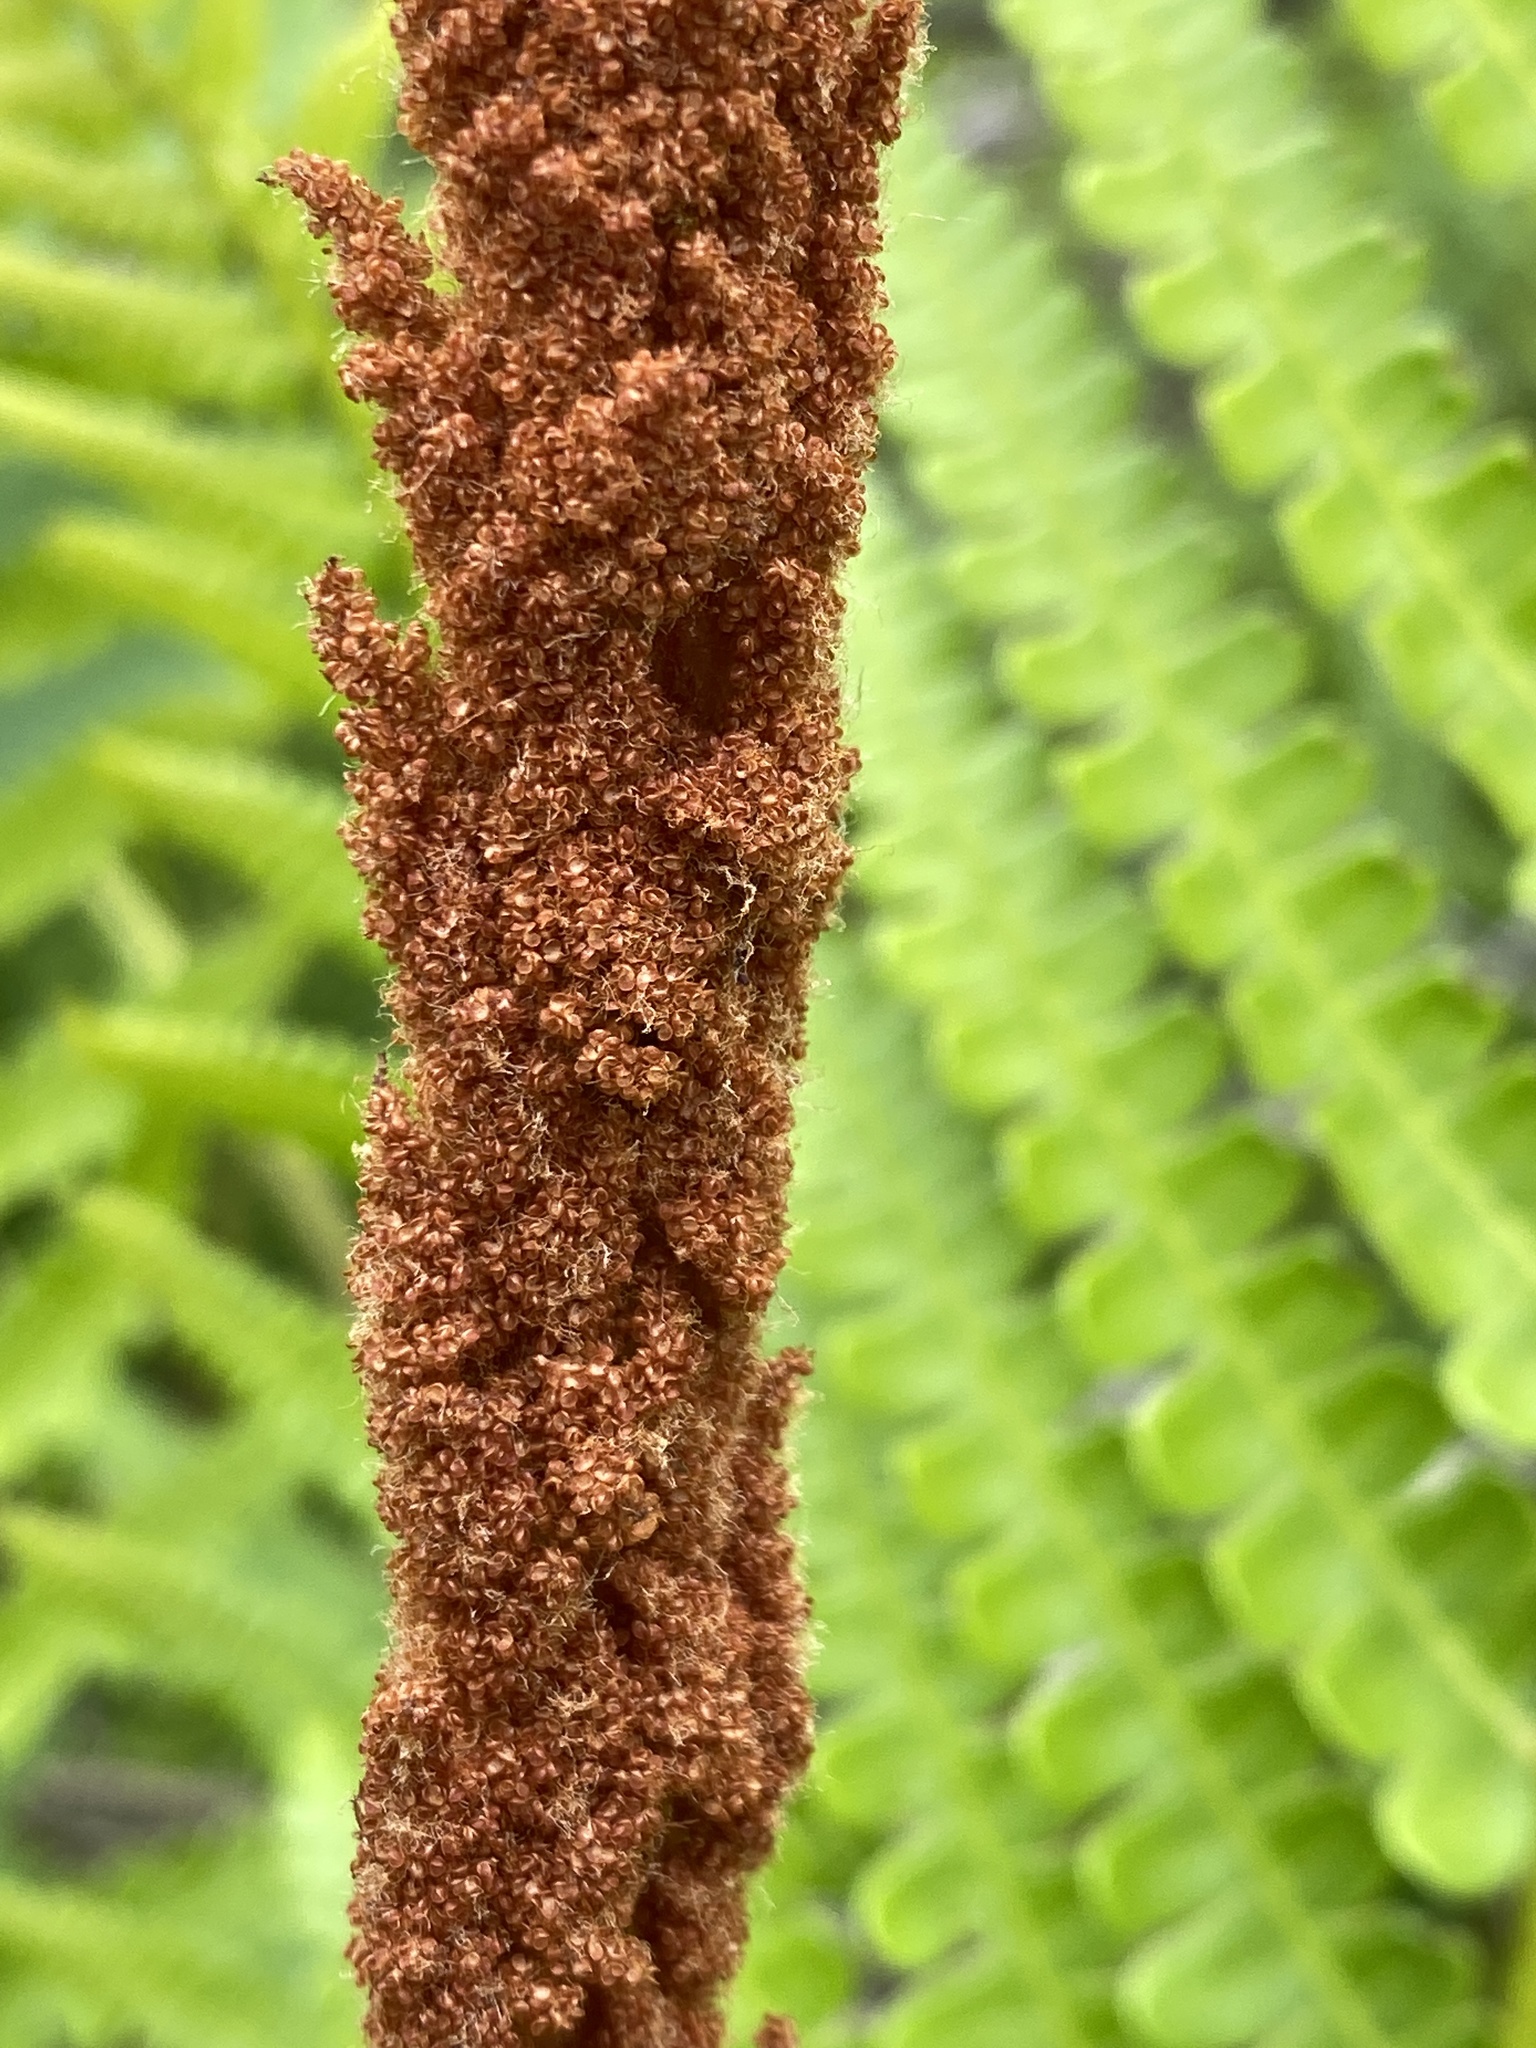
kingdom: Plantae
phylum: Tracheophyta
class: Polypodiopsida
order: Osmundales
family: Osmundaceae
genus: Osmundastrum
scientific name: Osmundastrum cinnamomeum
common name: Cinnamon fern
